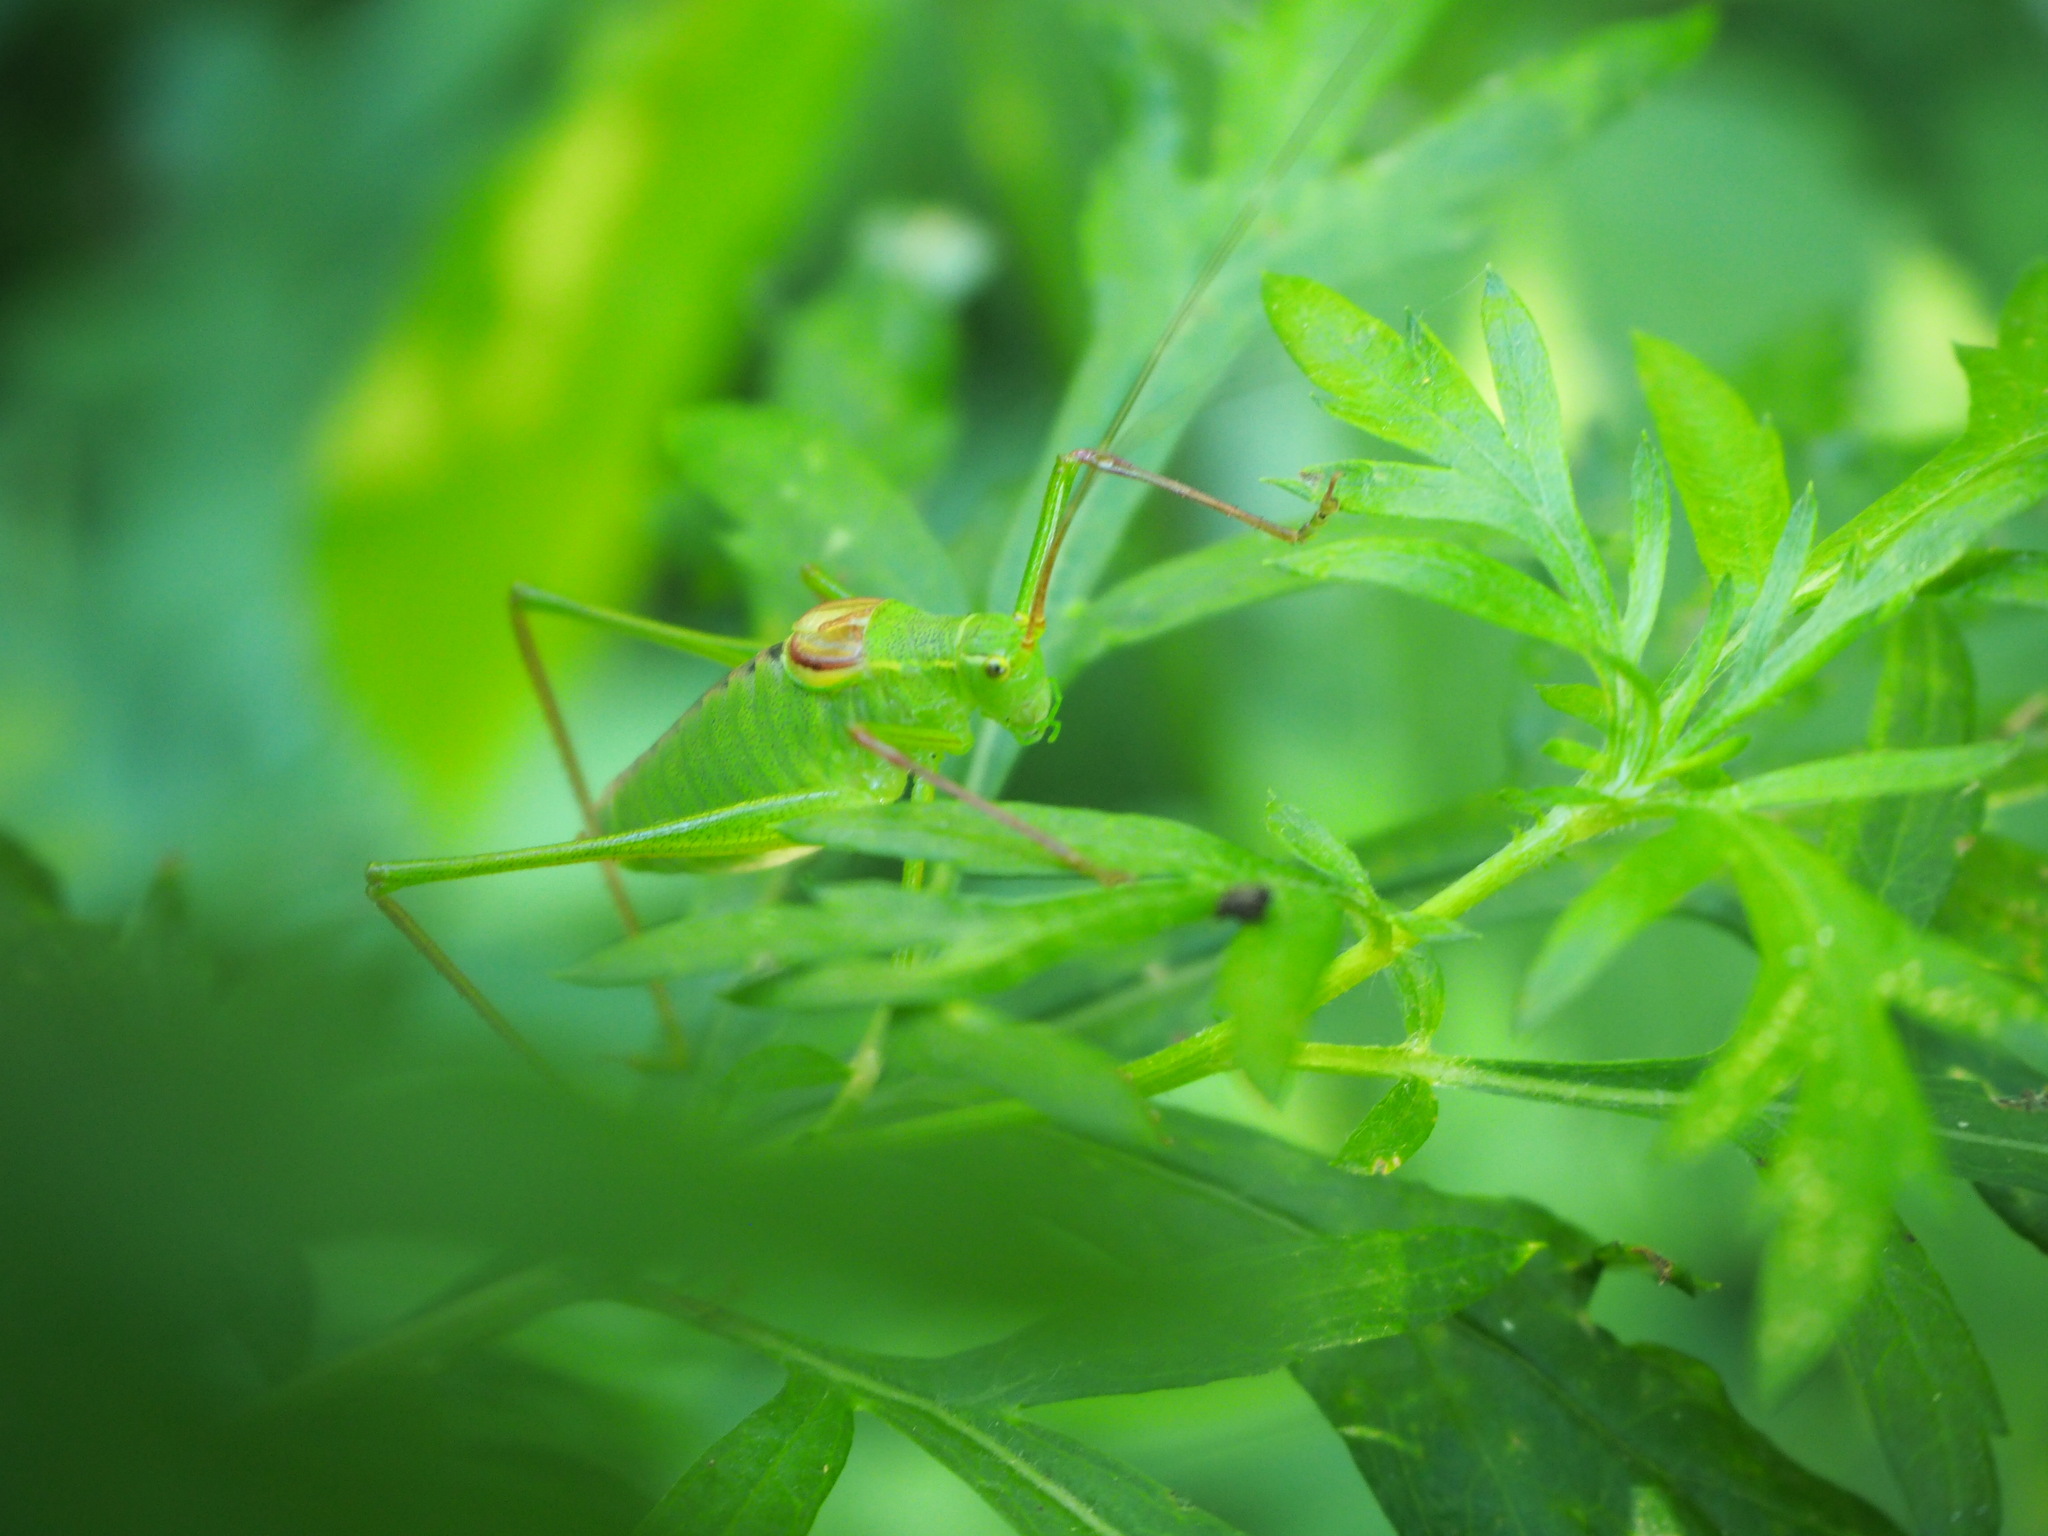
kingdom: Animalia
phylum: Arthropoda
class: Insecta
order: Orthoptera
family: Tettigoniidae
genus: Leptophyes
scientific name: Leptophyes laticauda
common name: Long-tailed speckled bush-cricket
